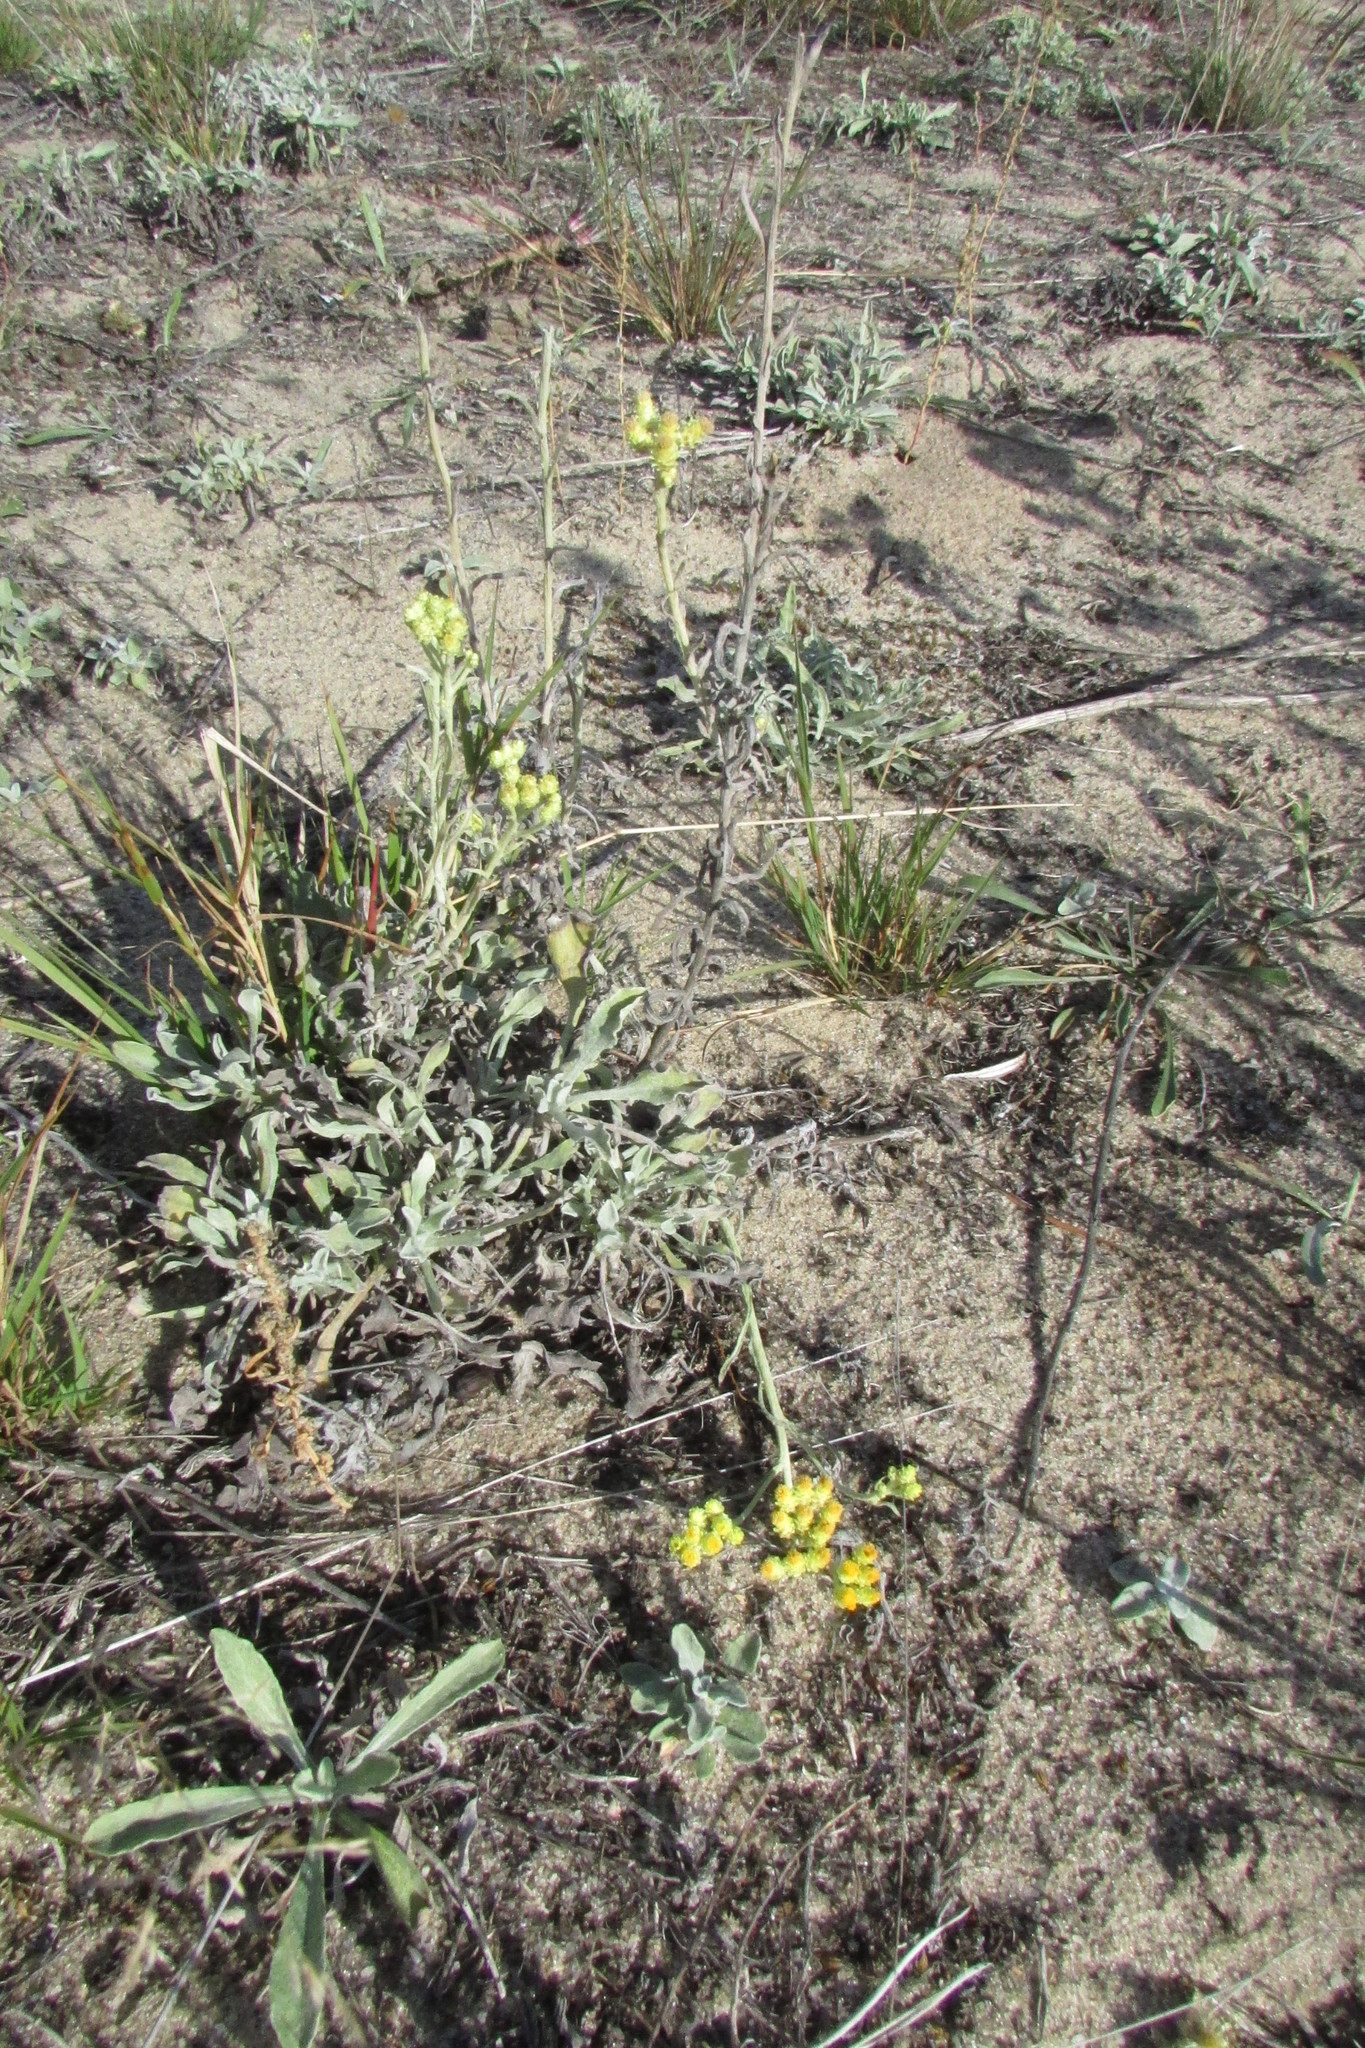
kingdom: Plantae
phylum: Tracheophyta
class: Magnoliopsida
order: Asterales
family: Asteraceae
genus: Helichrysum
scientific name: Helichrysum arenarium
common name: Strawflower
